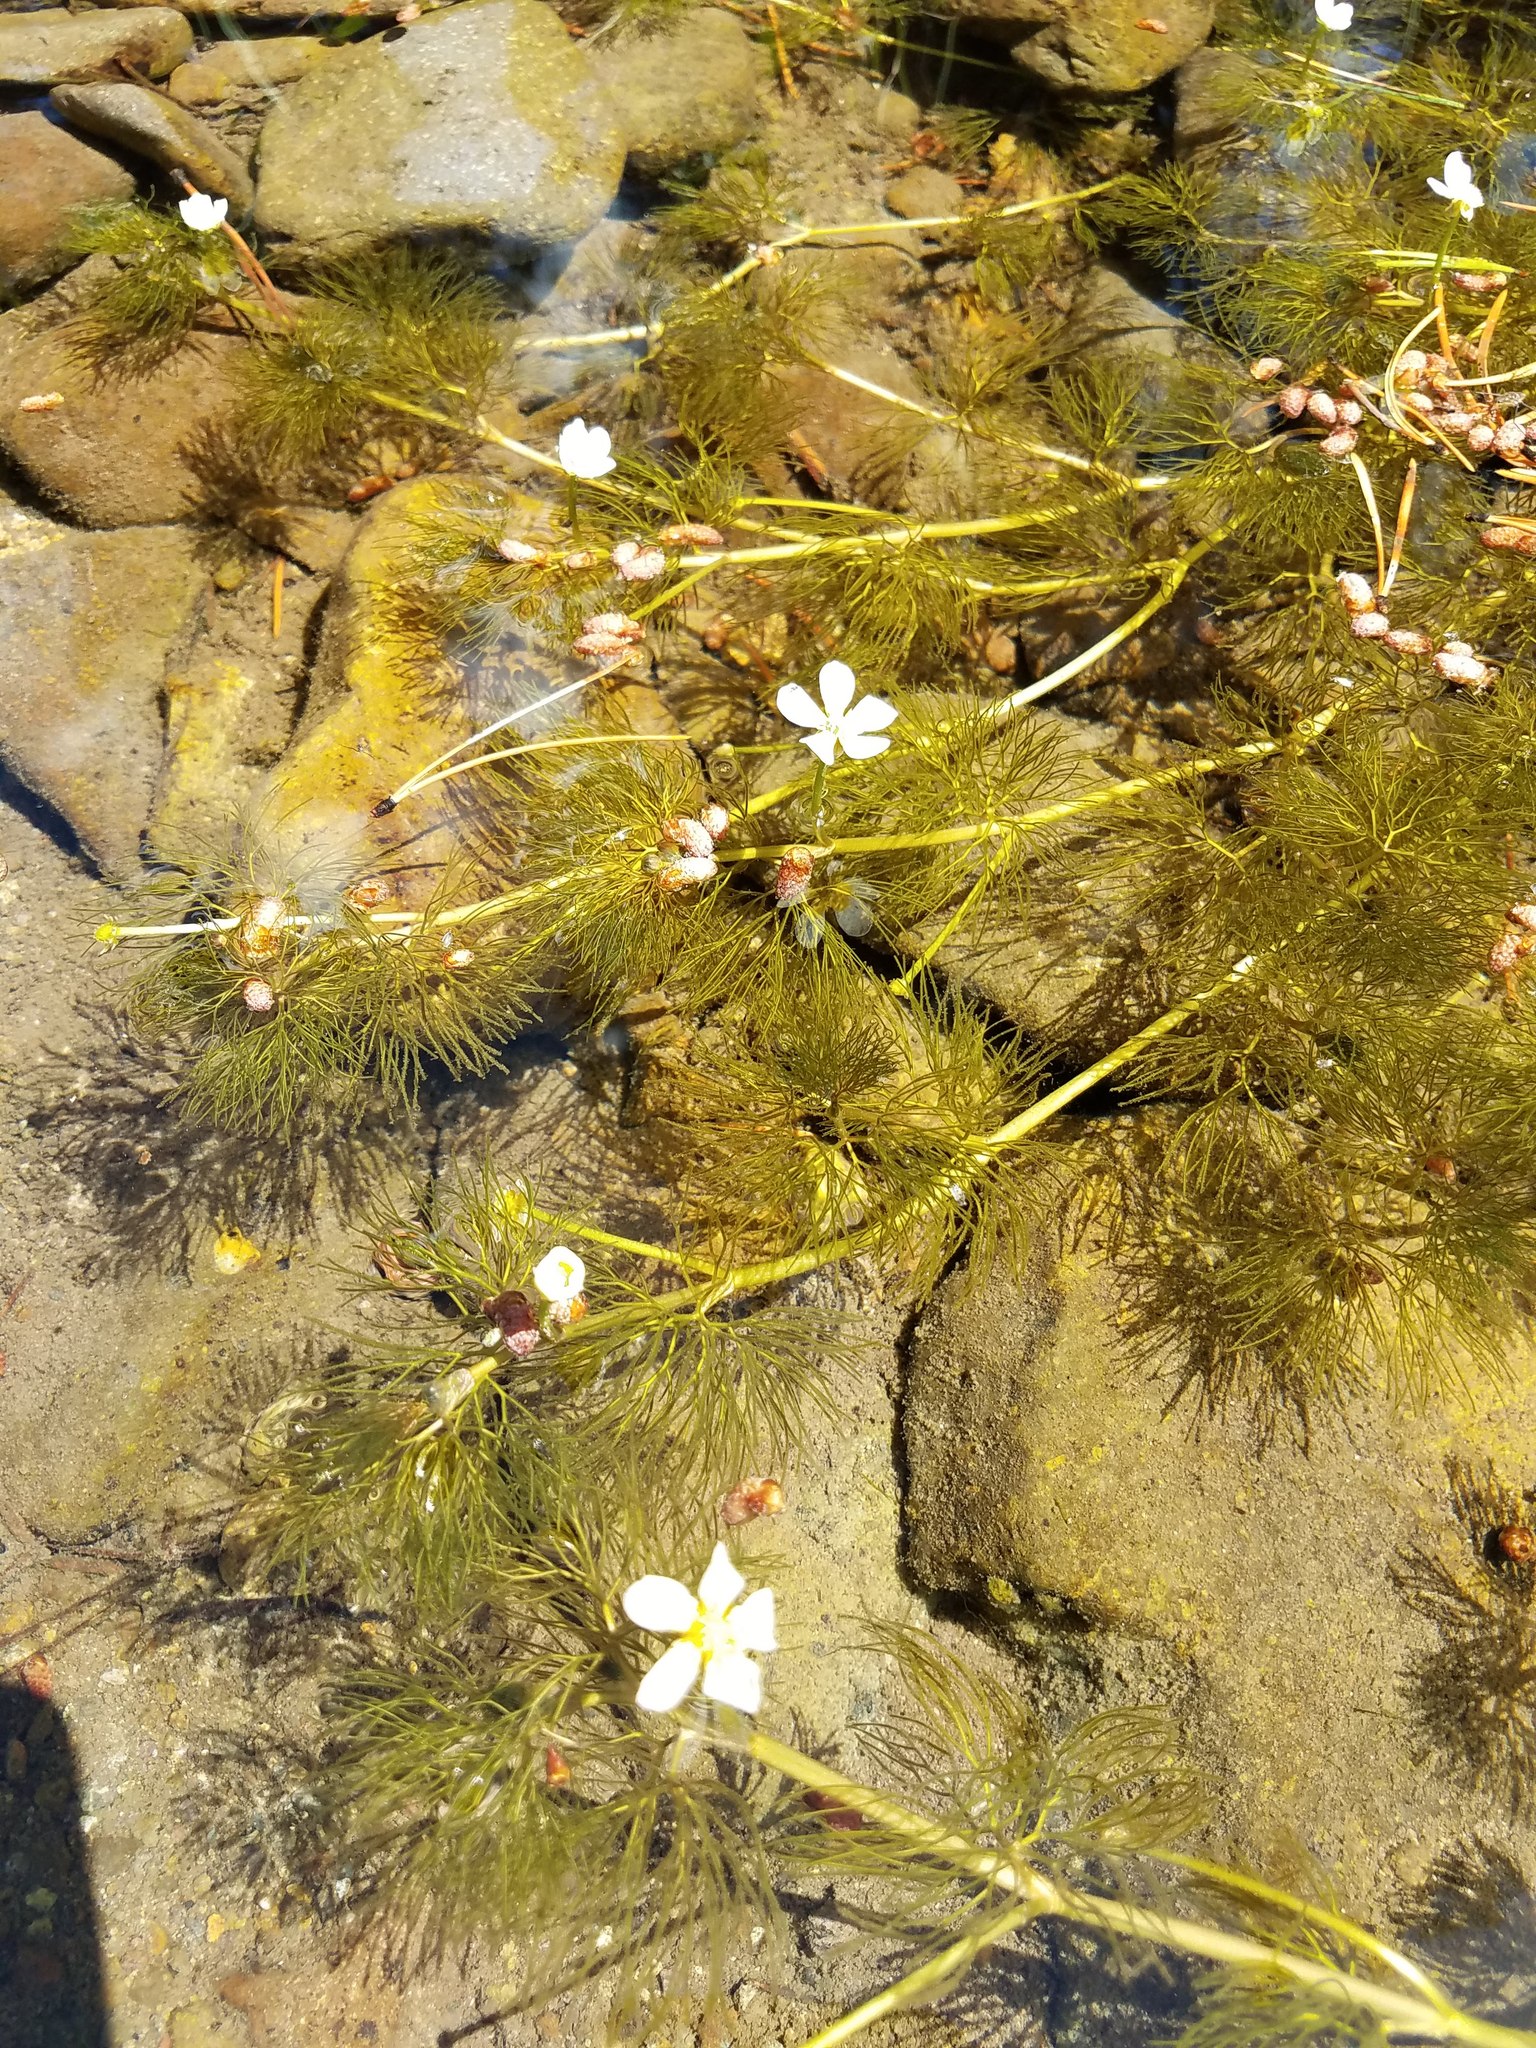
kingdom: Plantae
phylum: Tracheophyta
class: Magnoliopsida
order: Ranunculales
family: Ranunculaceae
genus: Ranunculus
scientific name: Ranunculus aquatilis
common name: Common water-crowfoot
